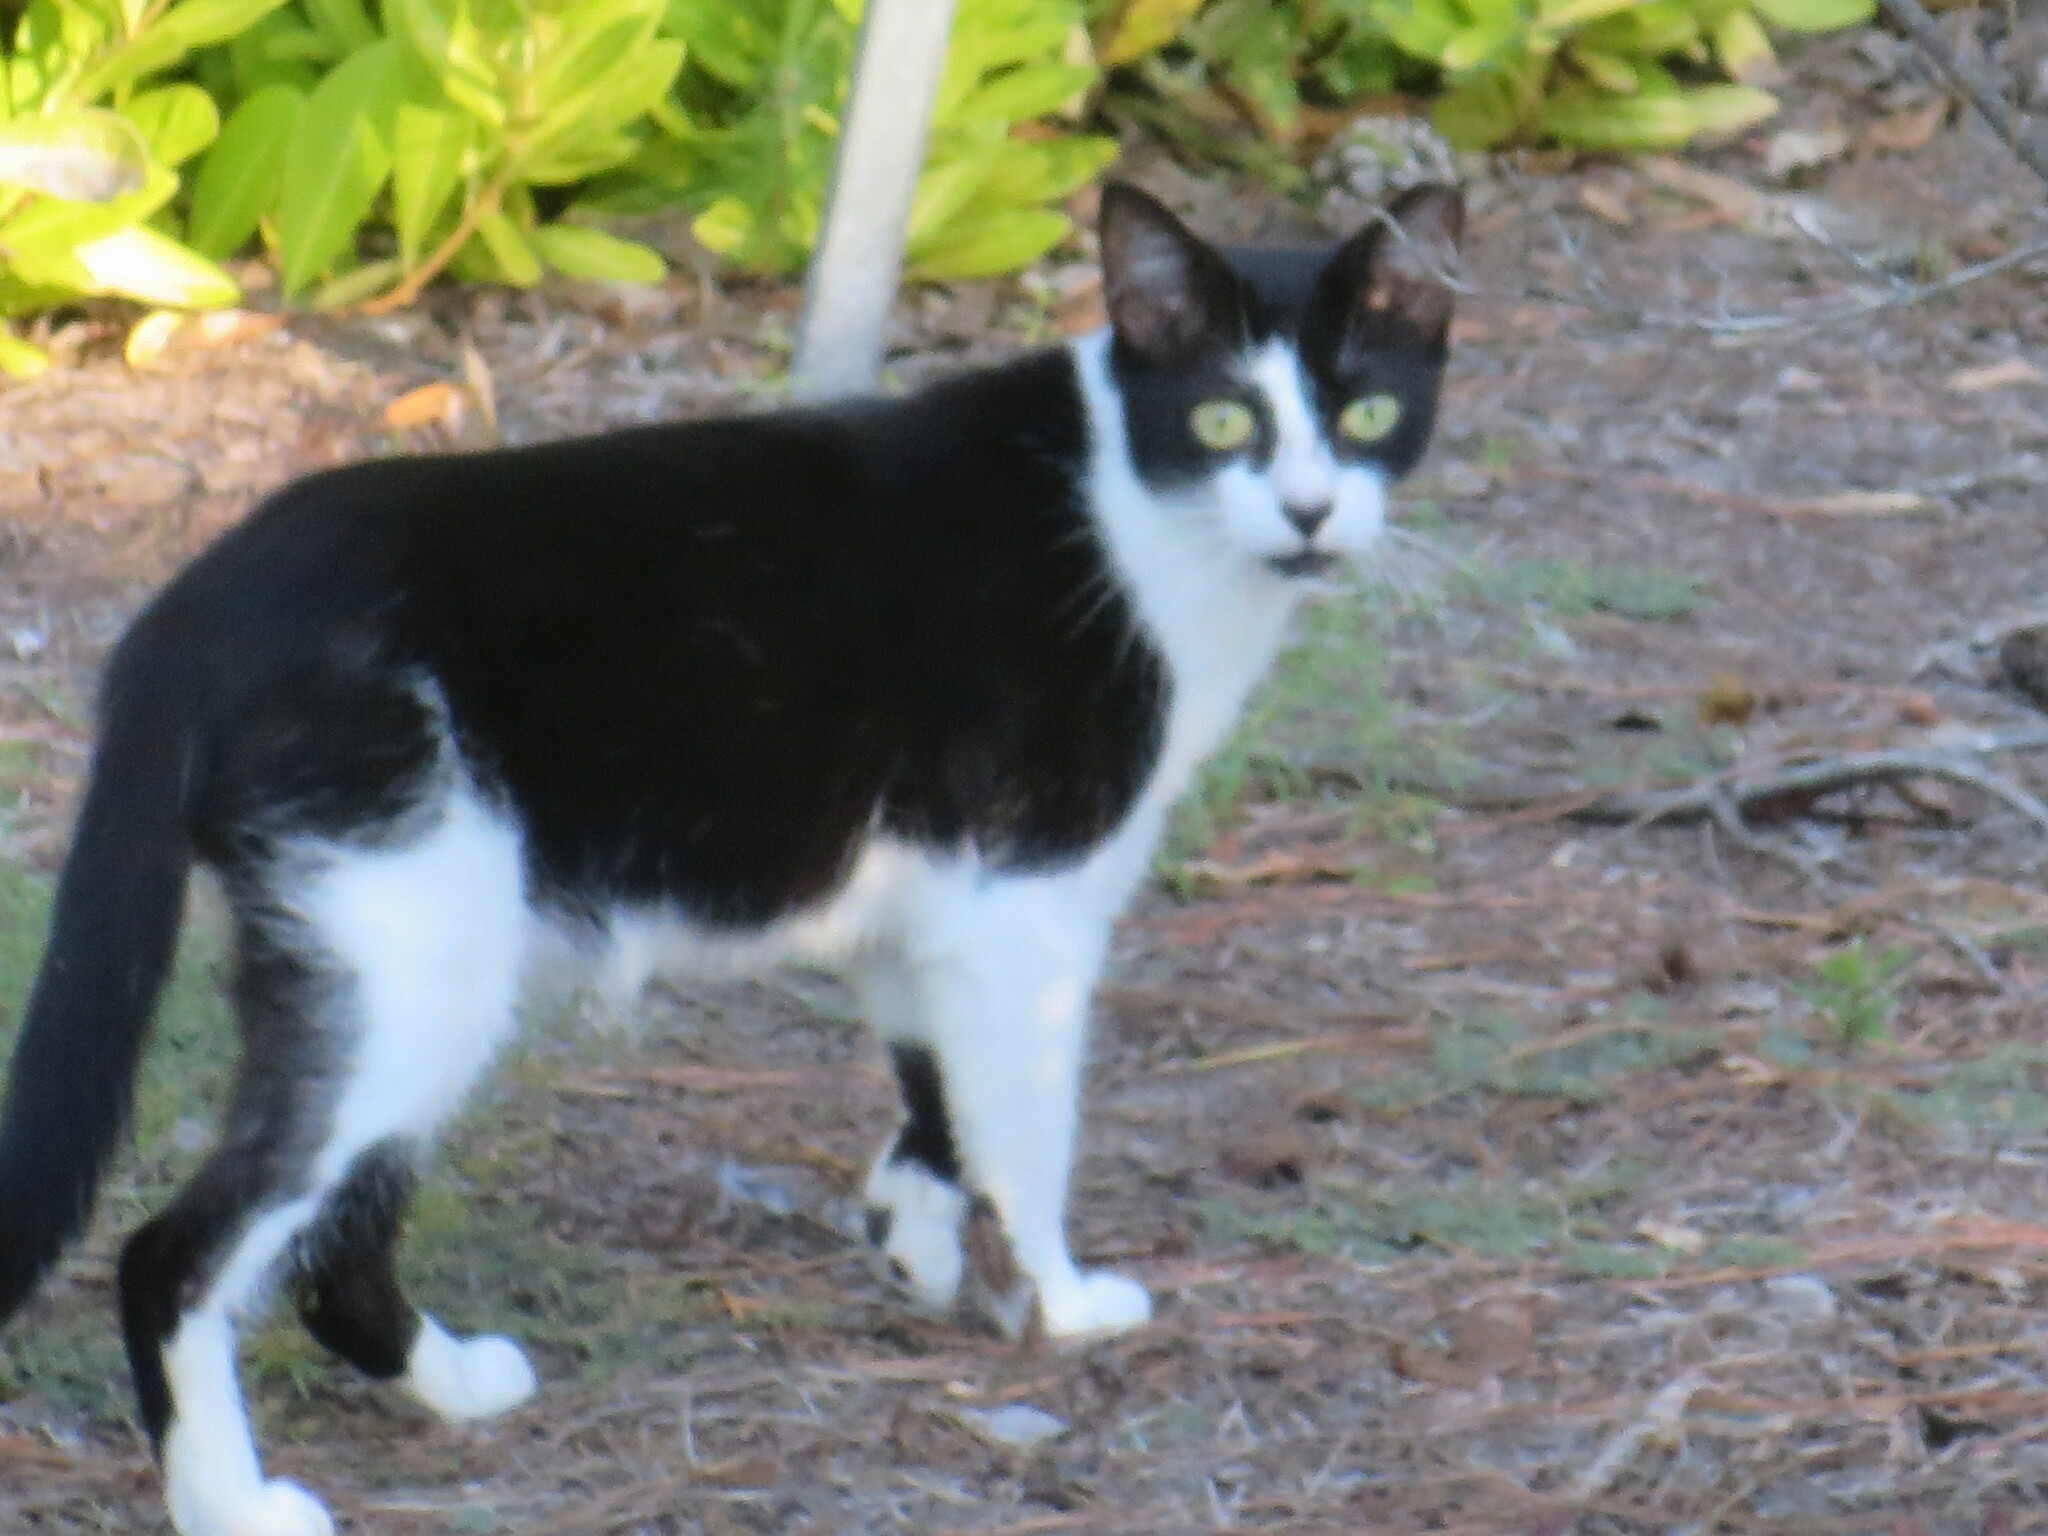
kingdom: Animalia
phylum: Chordata
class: Mammalia
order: Carnivora
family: Felidae
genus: Felis
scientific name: Felis catus
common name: Domestic cat
